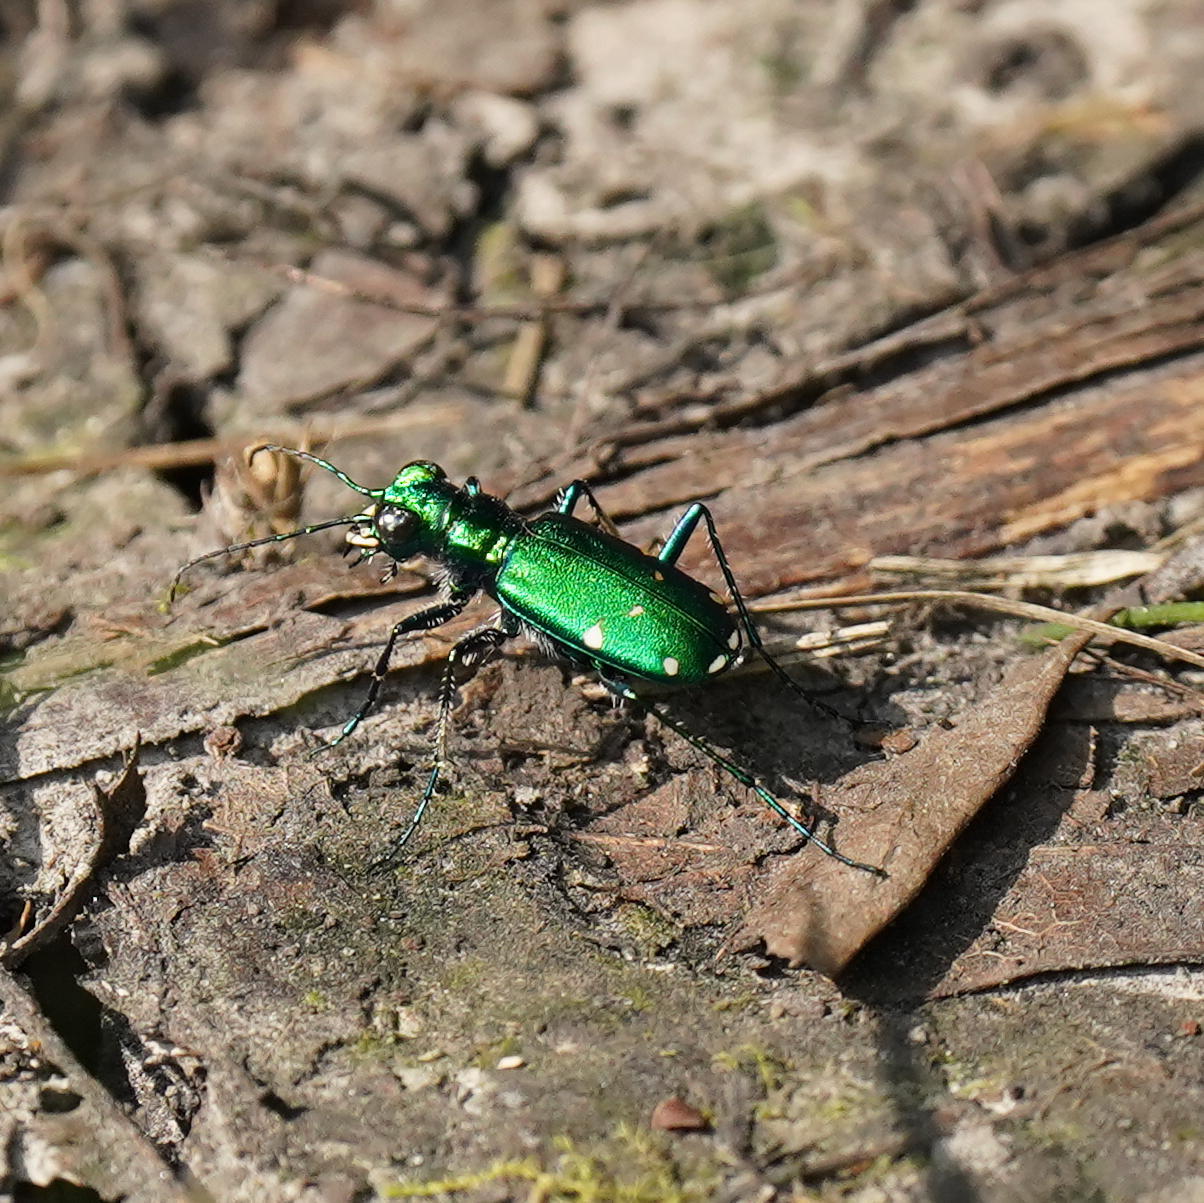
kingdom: Animalia
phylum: Arthropoda
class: Insecta
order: Coleoptera
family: Carabidae
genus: Cicindela
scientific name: Cicindela sexguttata
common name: Six-spotted tiger beetle
